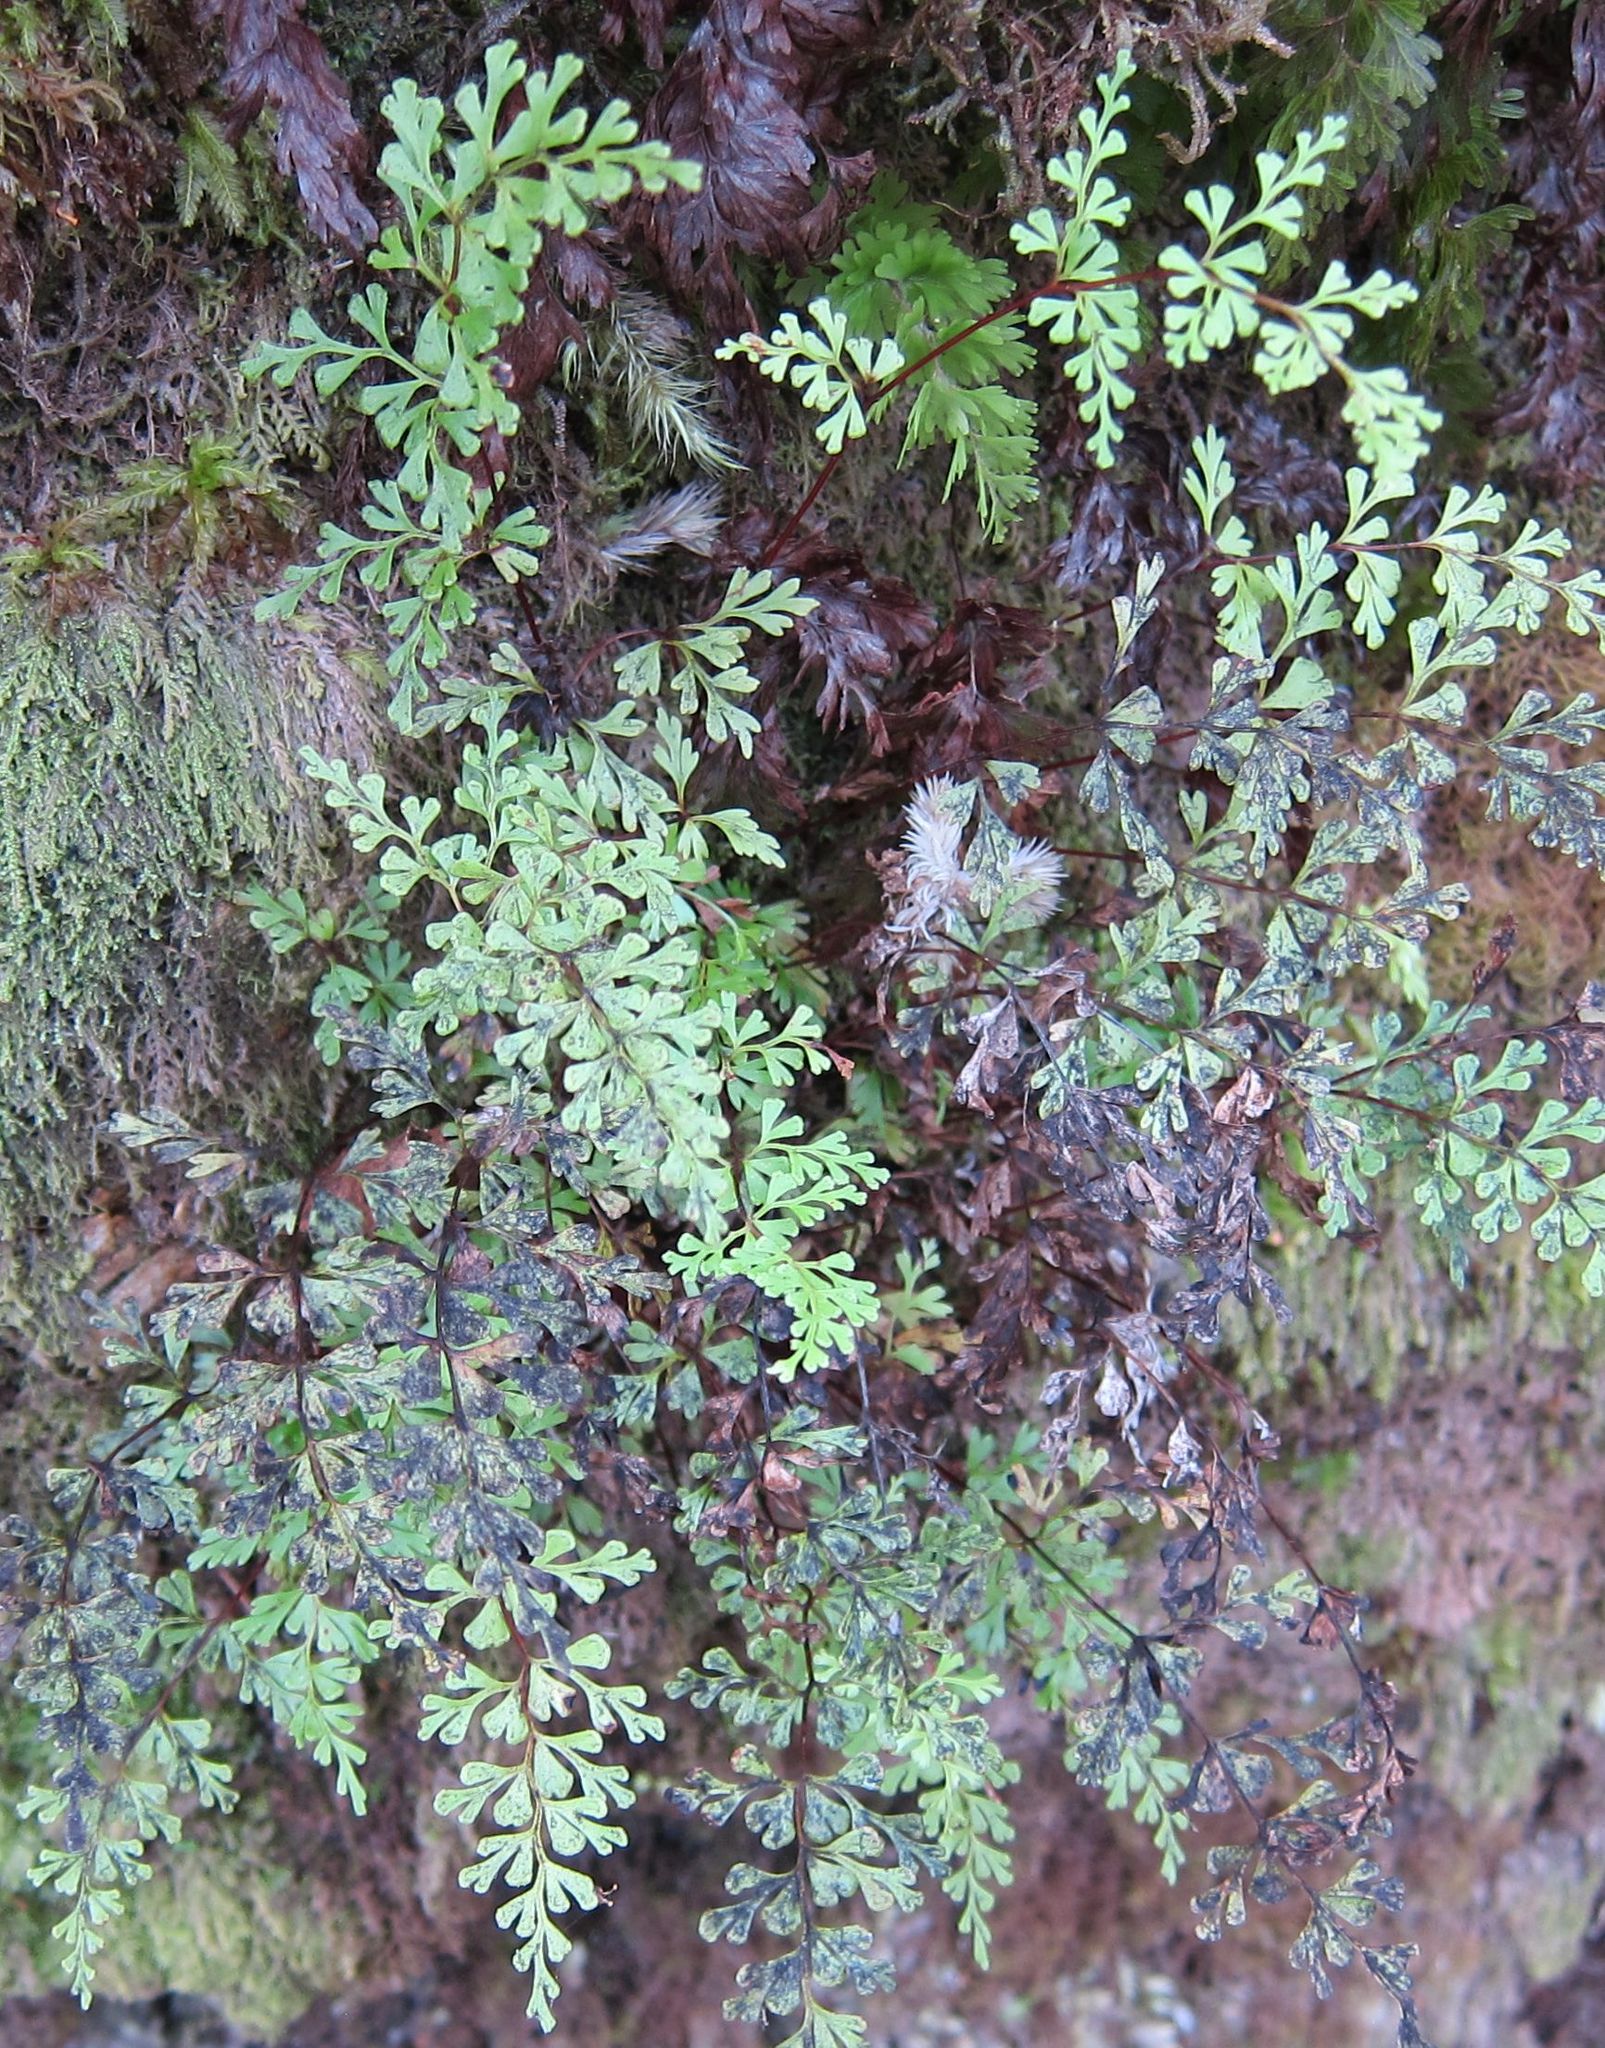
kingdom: Plantae
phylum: Tracheophyta
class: Polypodiopsida
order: Polypodiales
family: Lindsaeaceae
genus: Lindsaea
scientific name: Lindsaea trichomanoides
